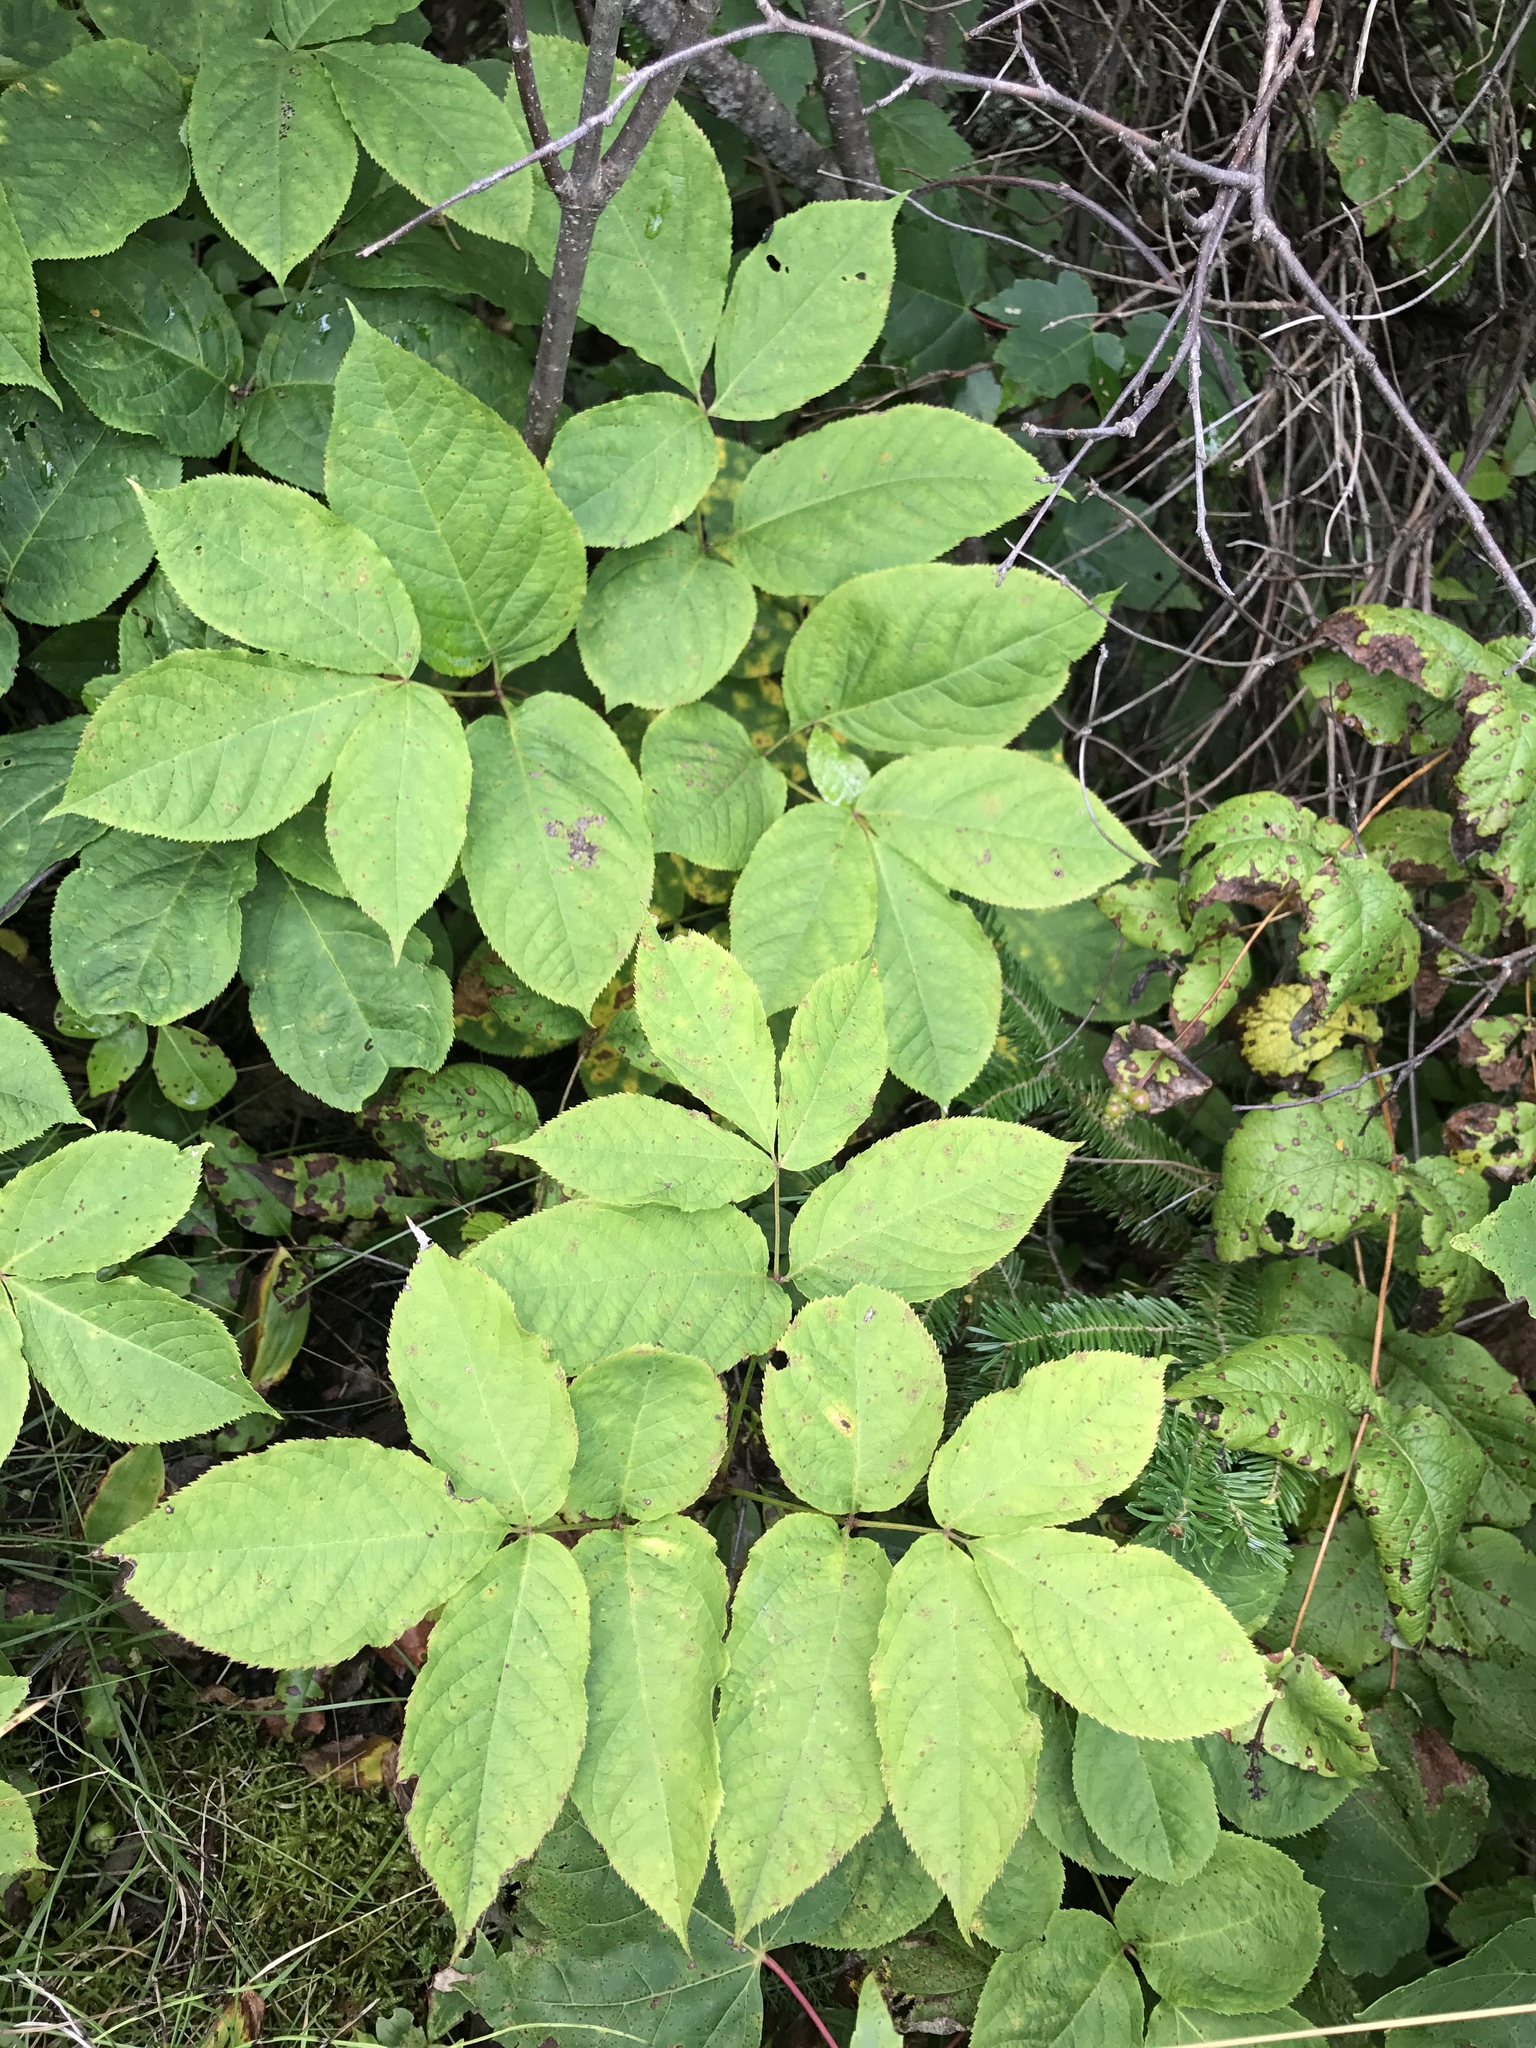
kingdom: Plantae
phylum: Tracheophyta
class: Magnoliopsida
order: Apiales
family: Araliaceae
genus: Aralia
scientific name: Aralia nudicaulis
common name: Wild sarsaparilla
